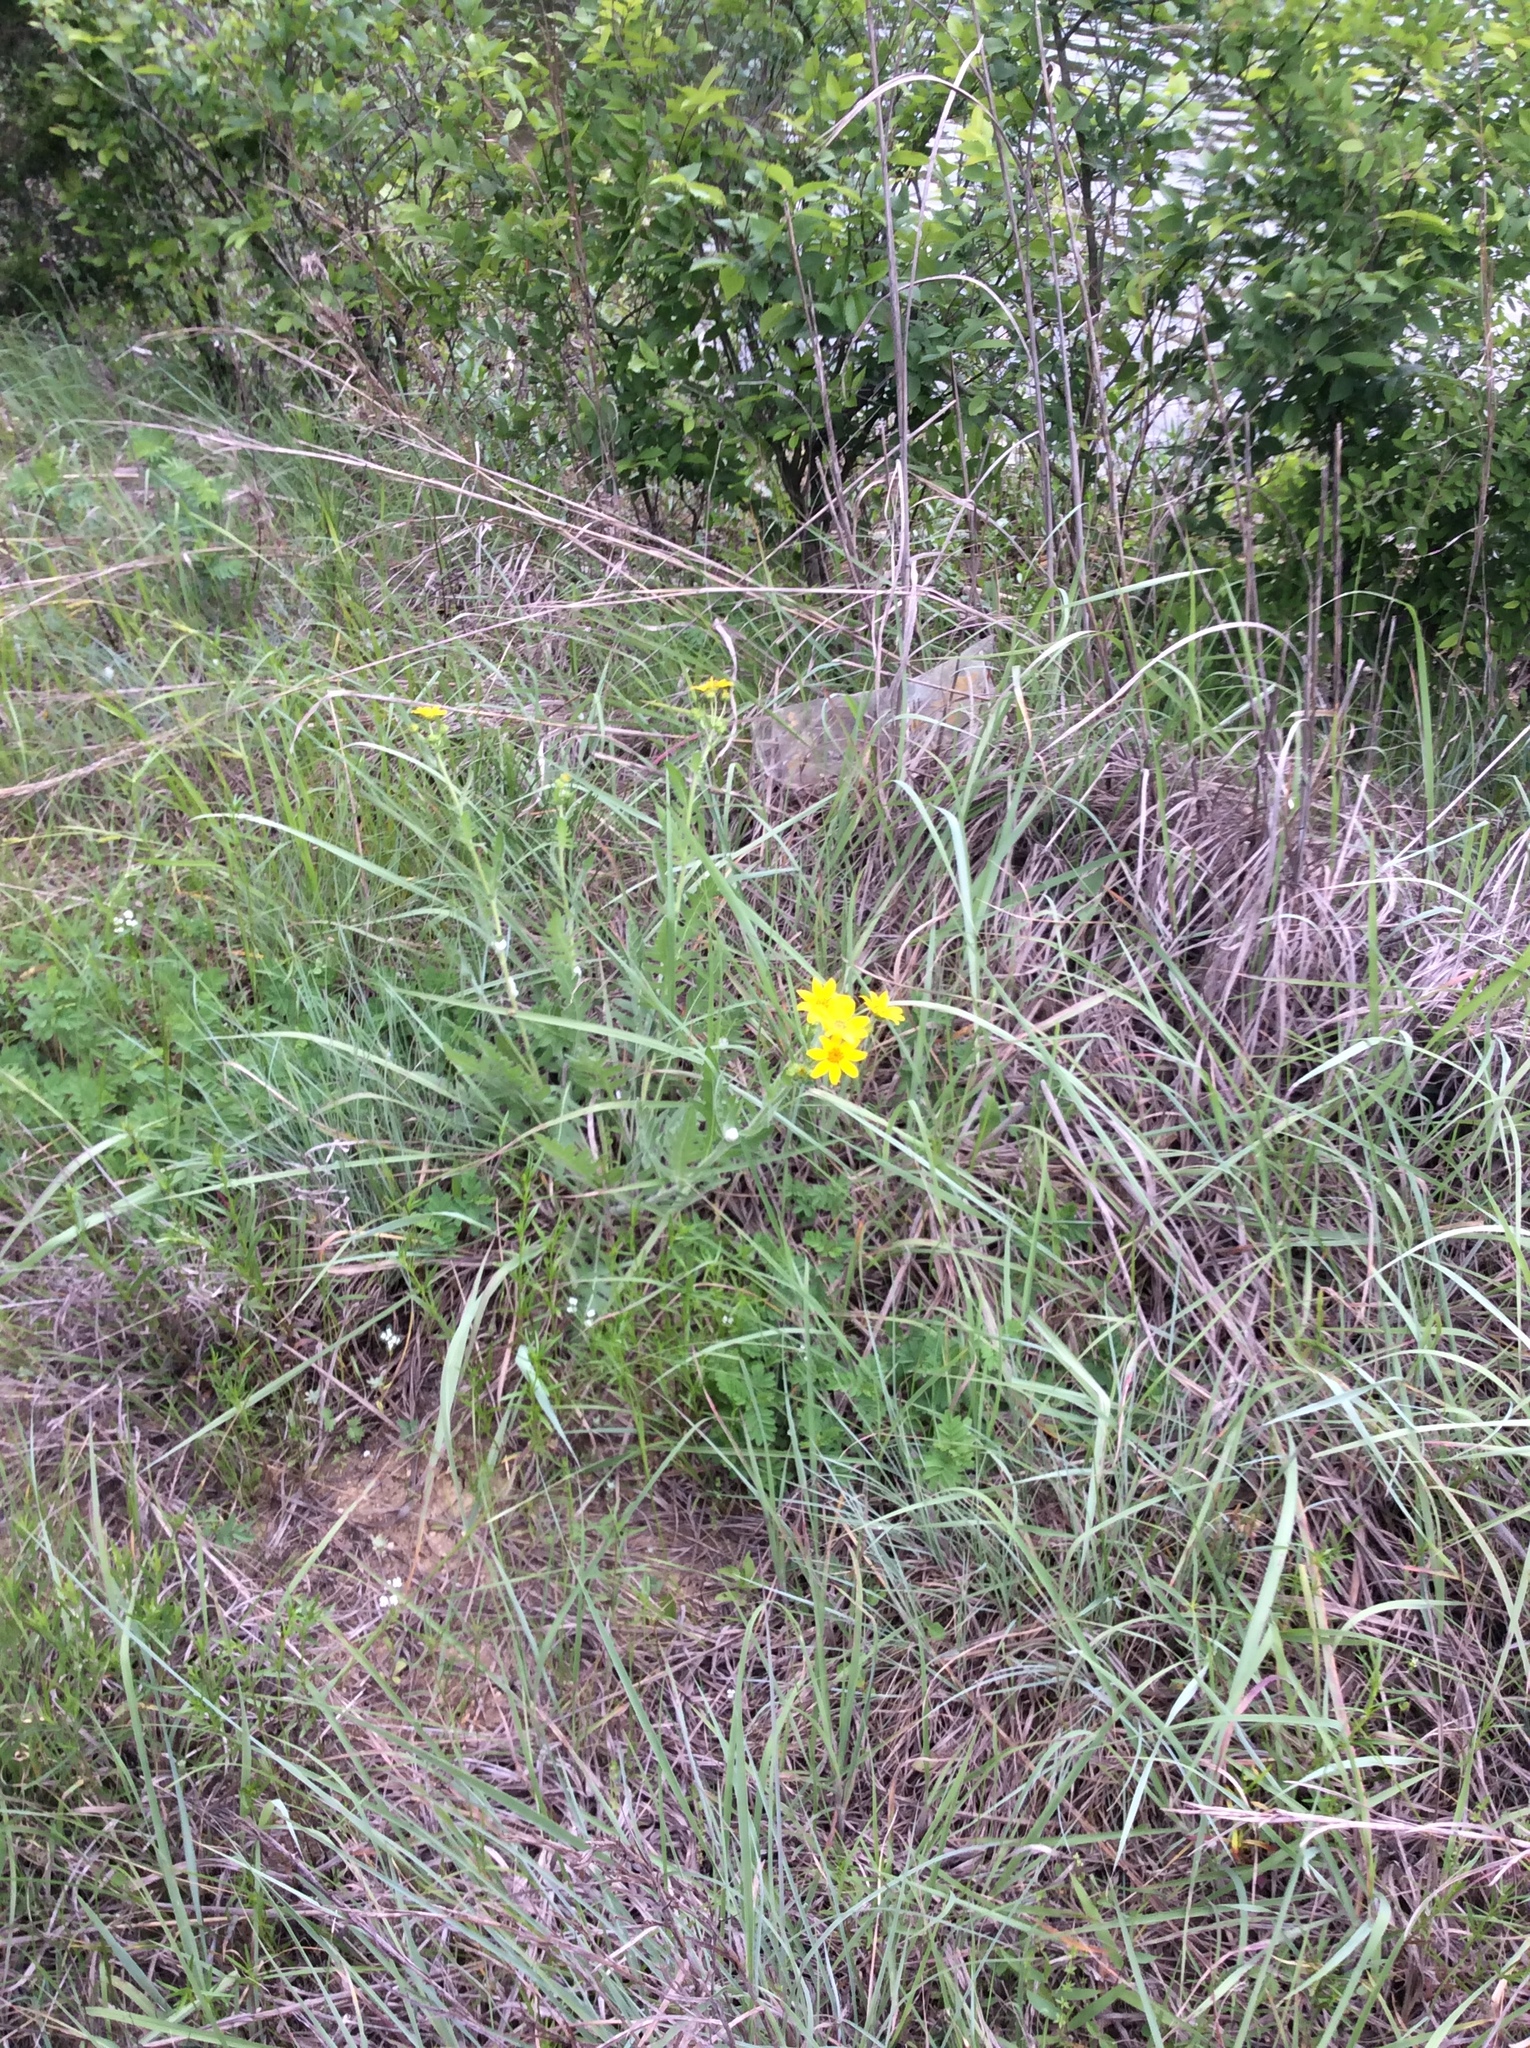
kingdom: Plantae
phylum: Tracheophyta
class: Magnoliopsida
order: Asterales
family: Asteraceae
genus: Engelmannia
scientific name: Engelmannia peristenia
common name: Engelmann's daisy
